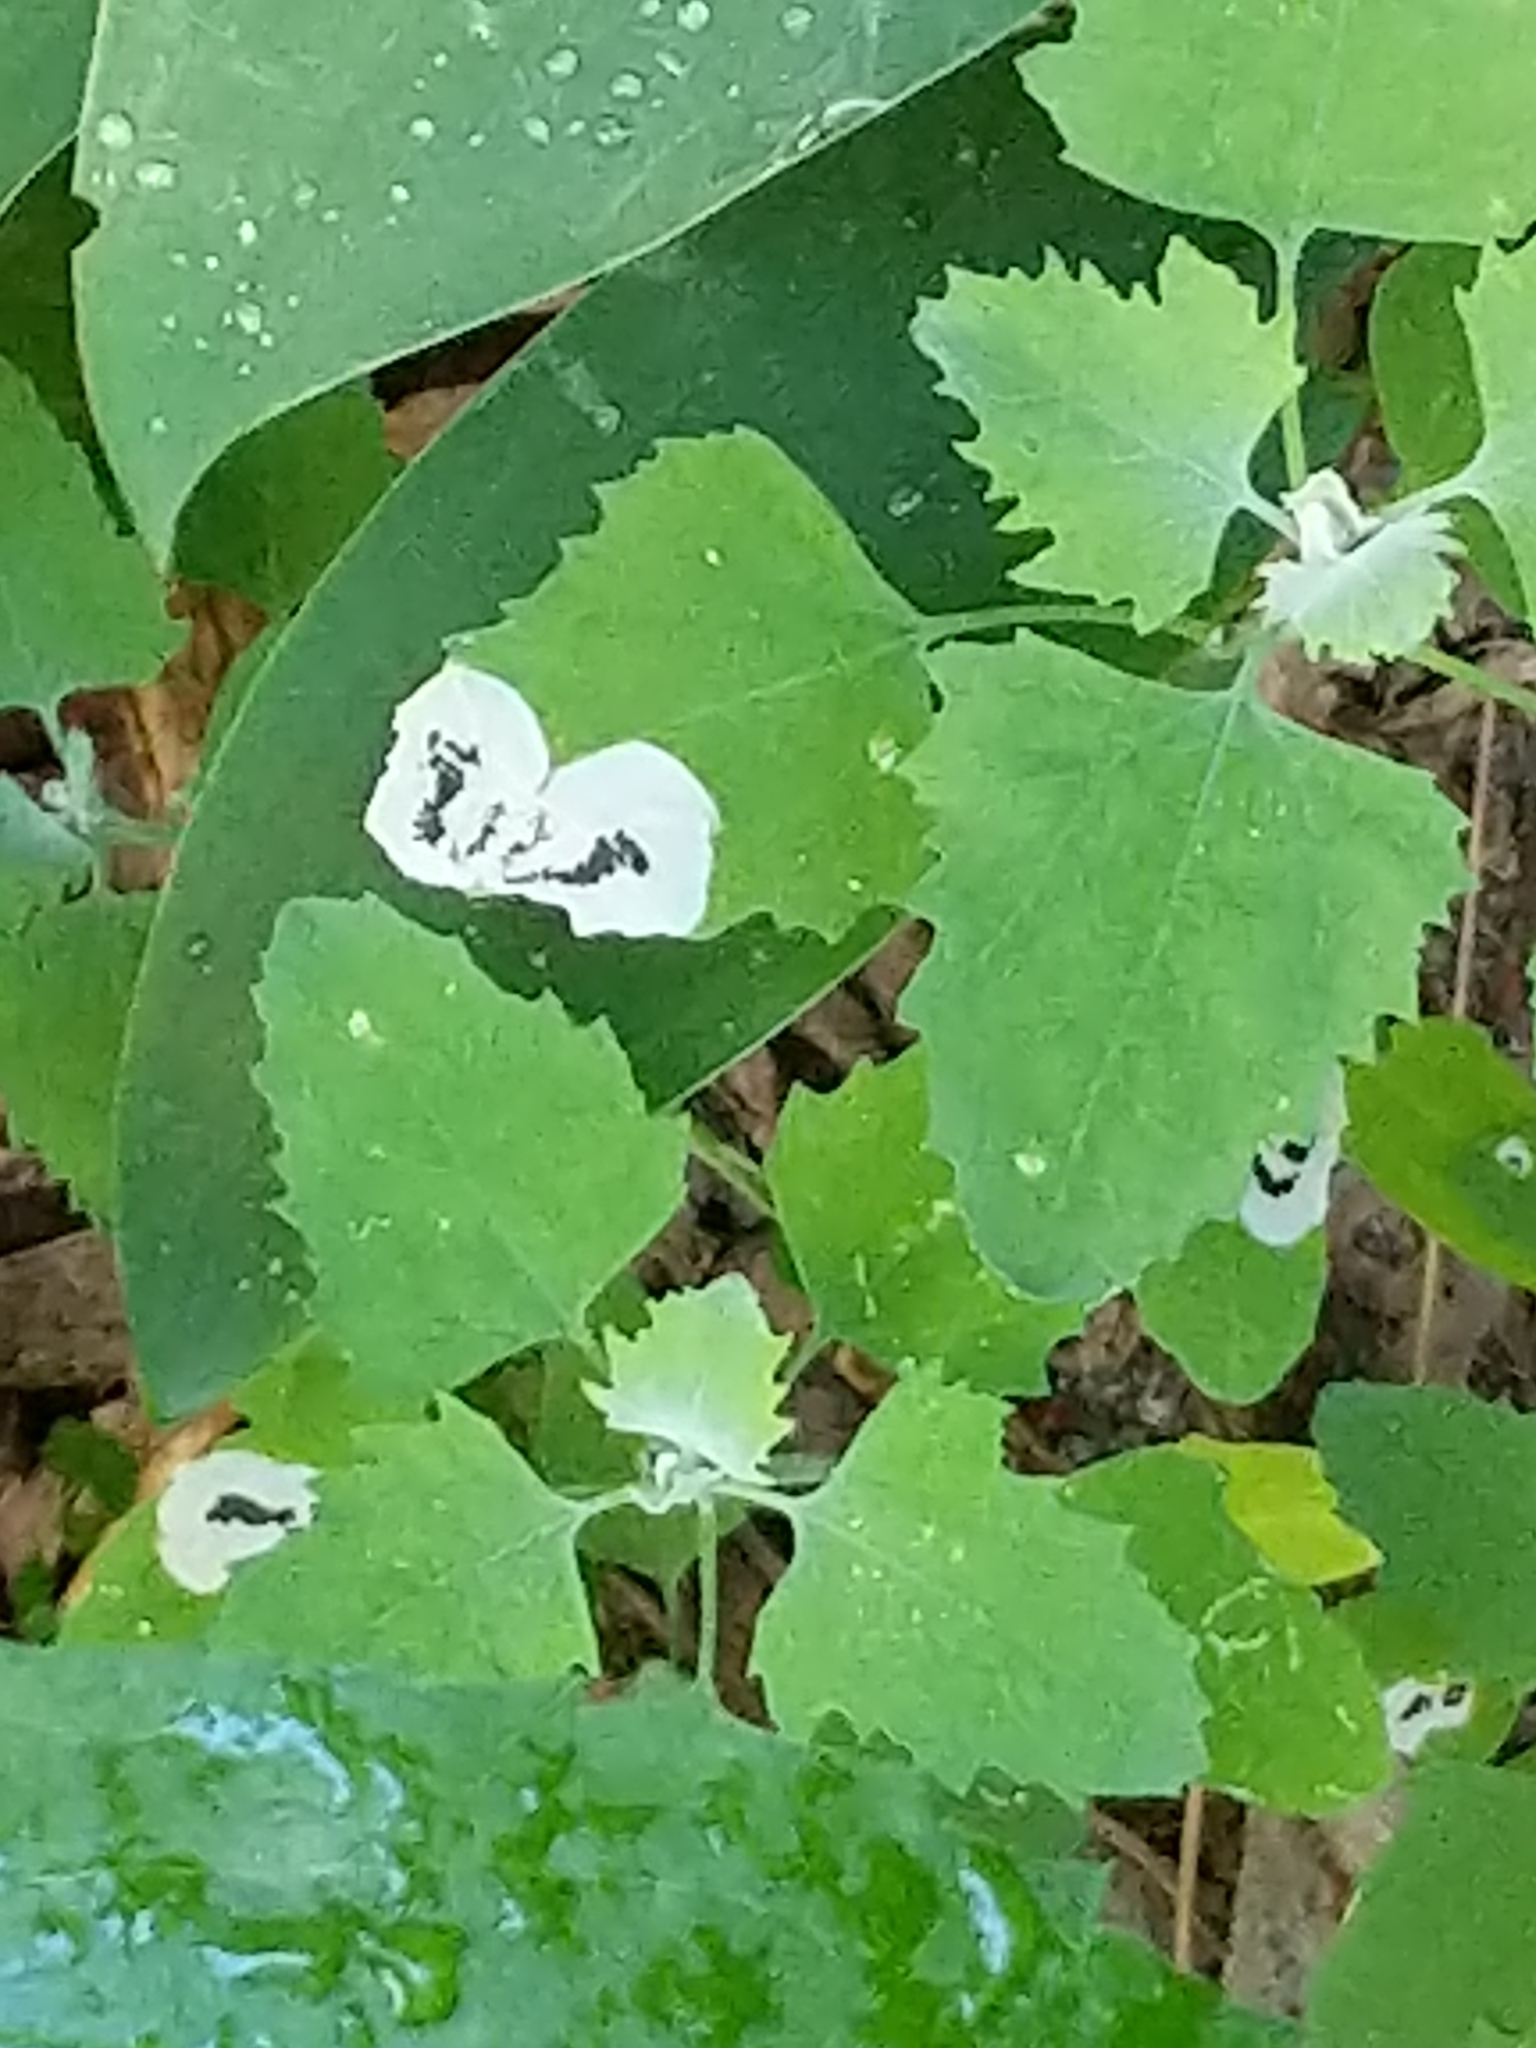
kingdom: Animalia
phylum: Arthropoda
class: Insecta
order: Lepidoptera
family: Gelechiidae
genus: Chrysoesthia
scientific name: Chrysoesthia sexguttella
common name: Moth
